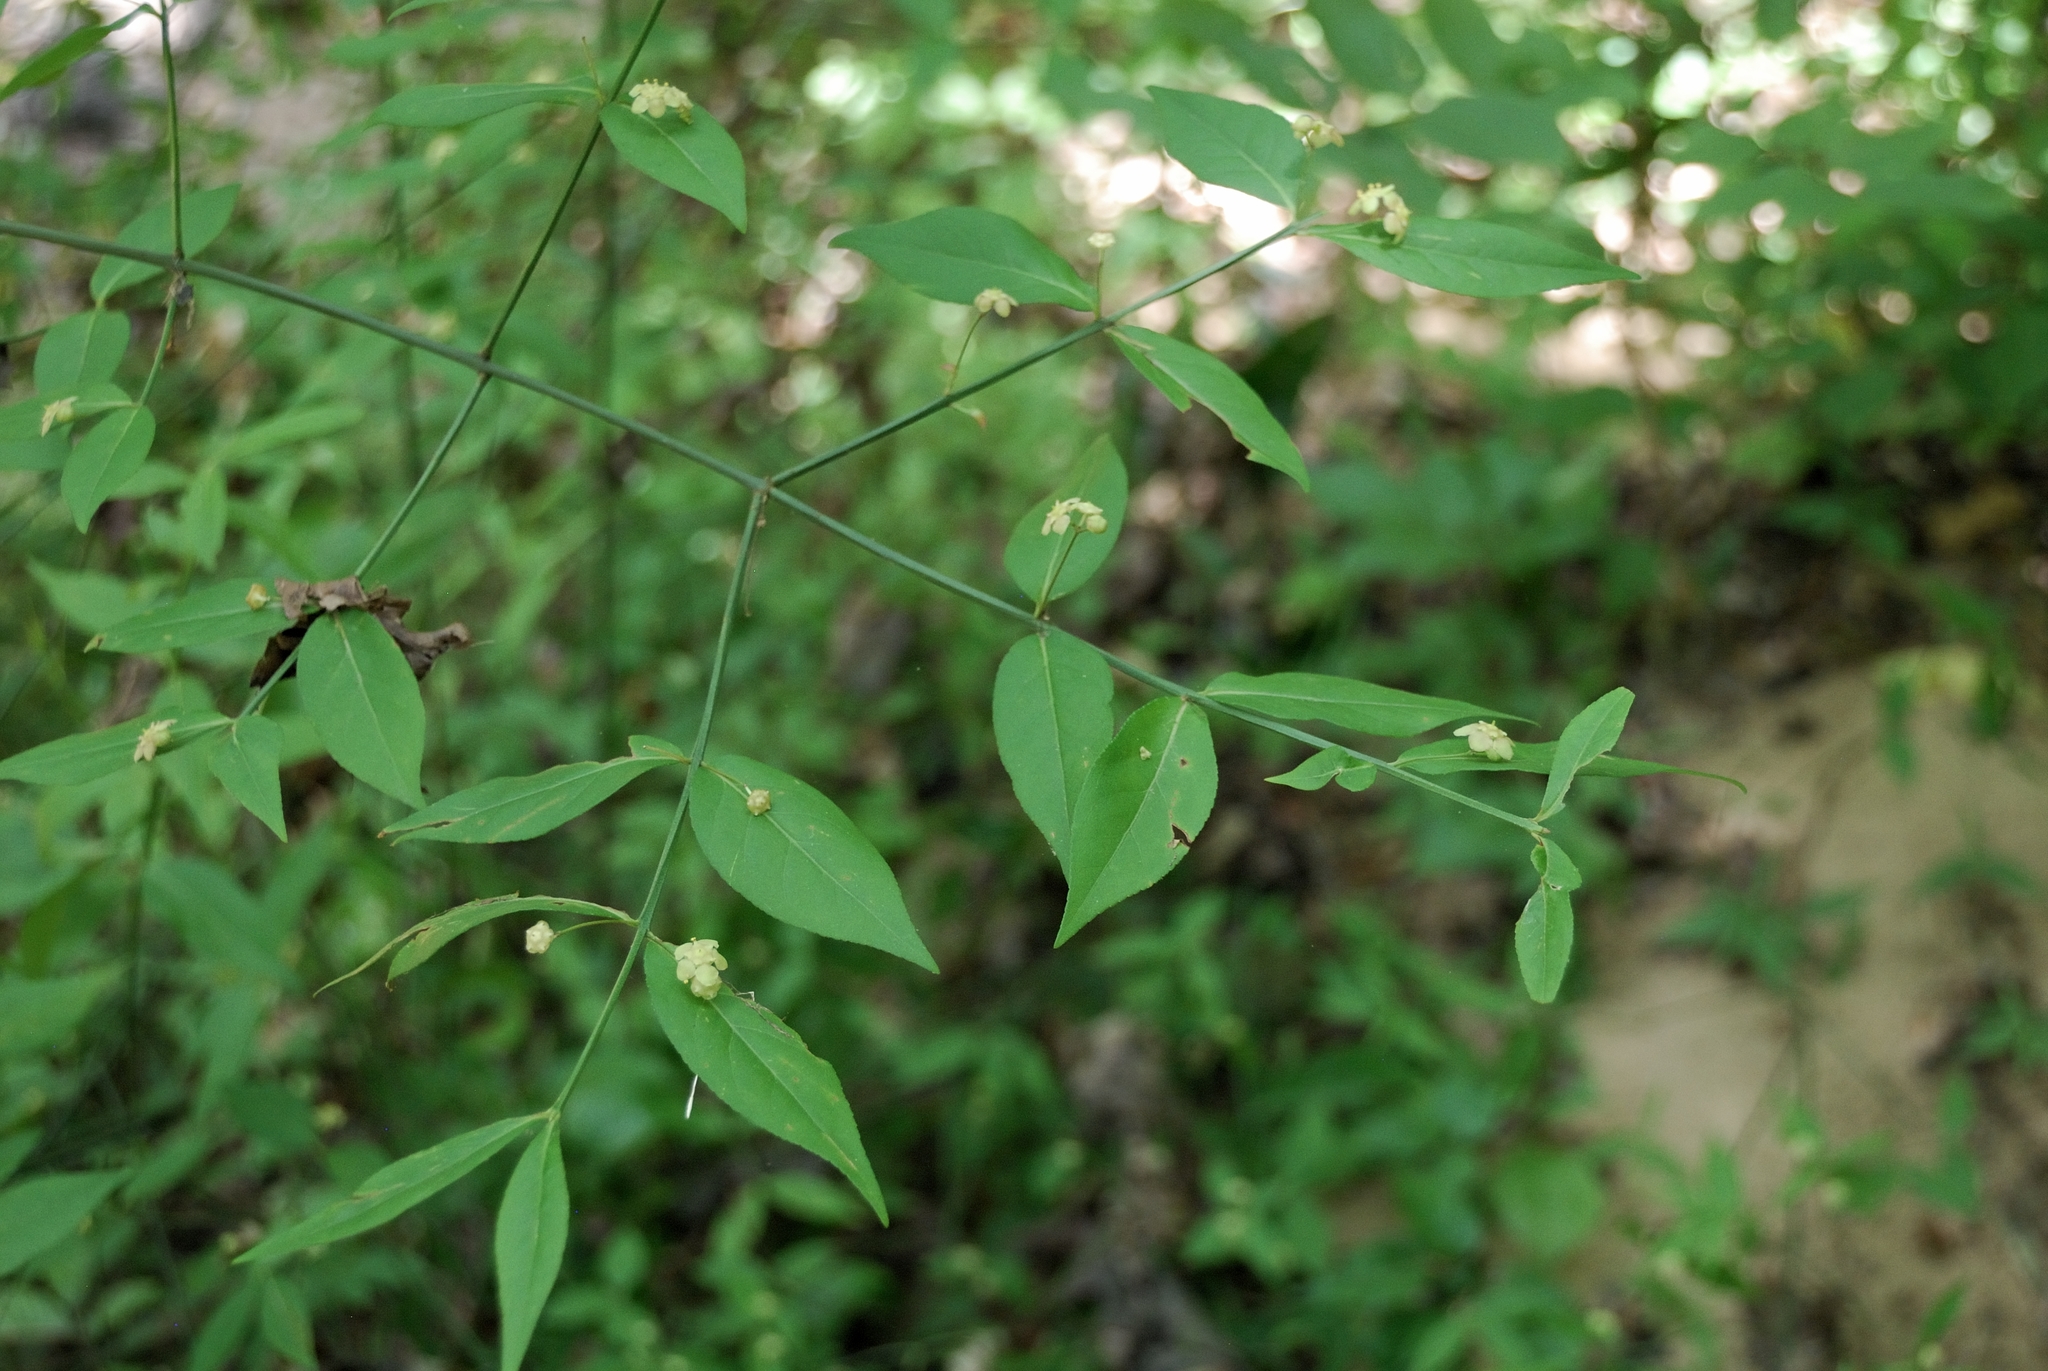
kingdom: Plantae
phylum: Tracheophyta
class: Magnoliopsida
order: Celastrales
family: Celastraceae
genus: Euonymus
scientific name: Euonymus americanus
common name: Bursting-heart
